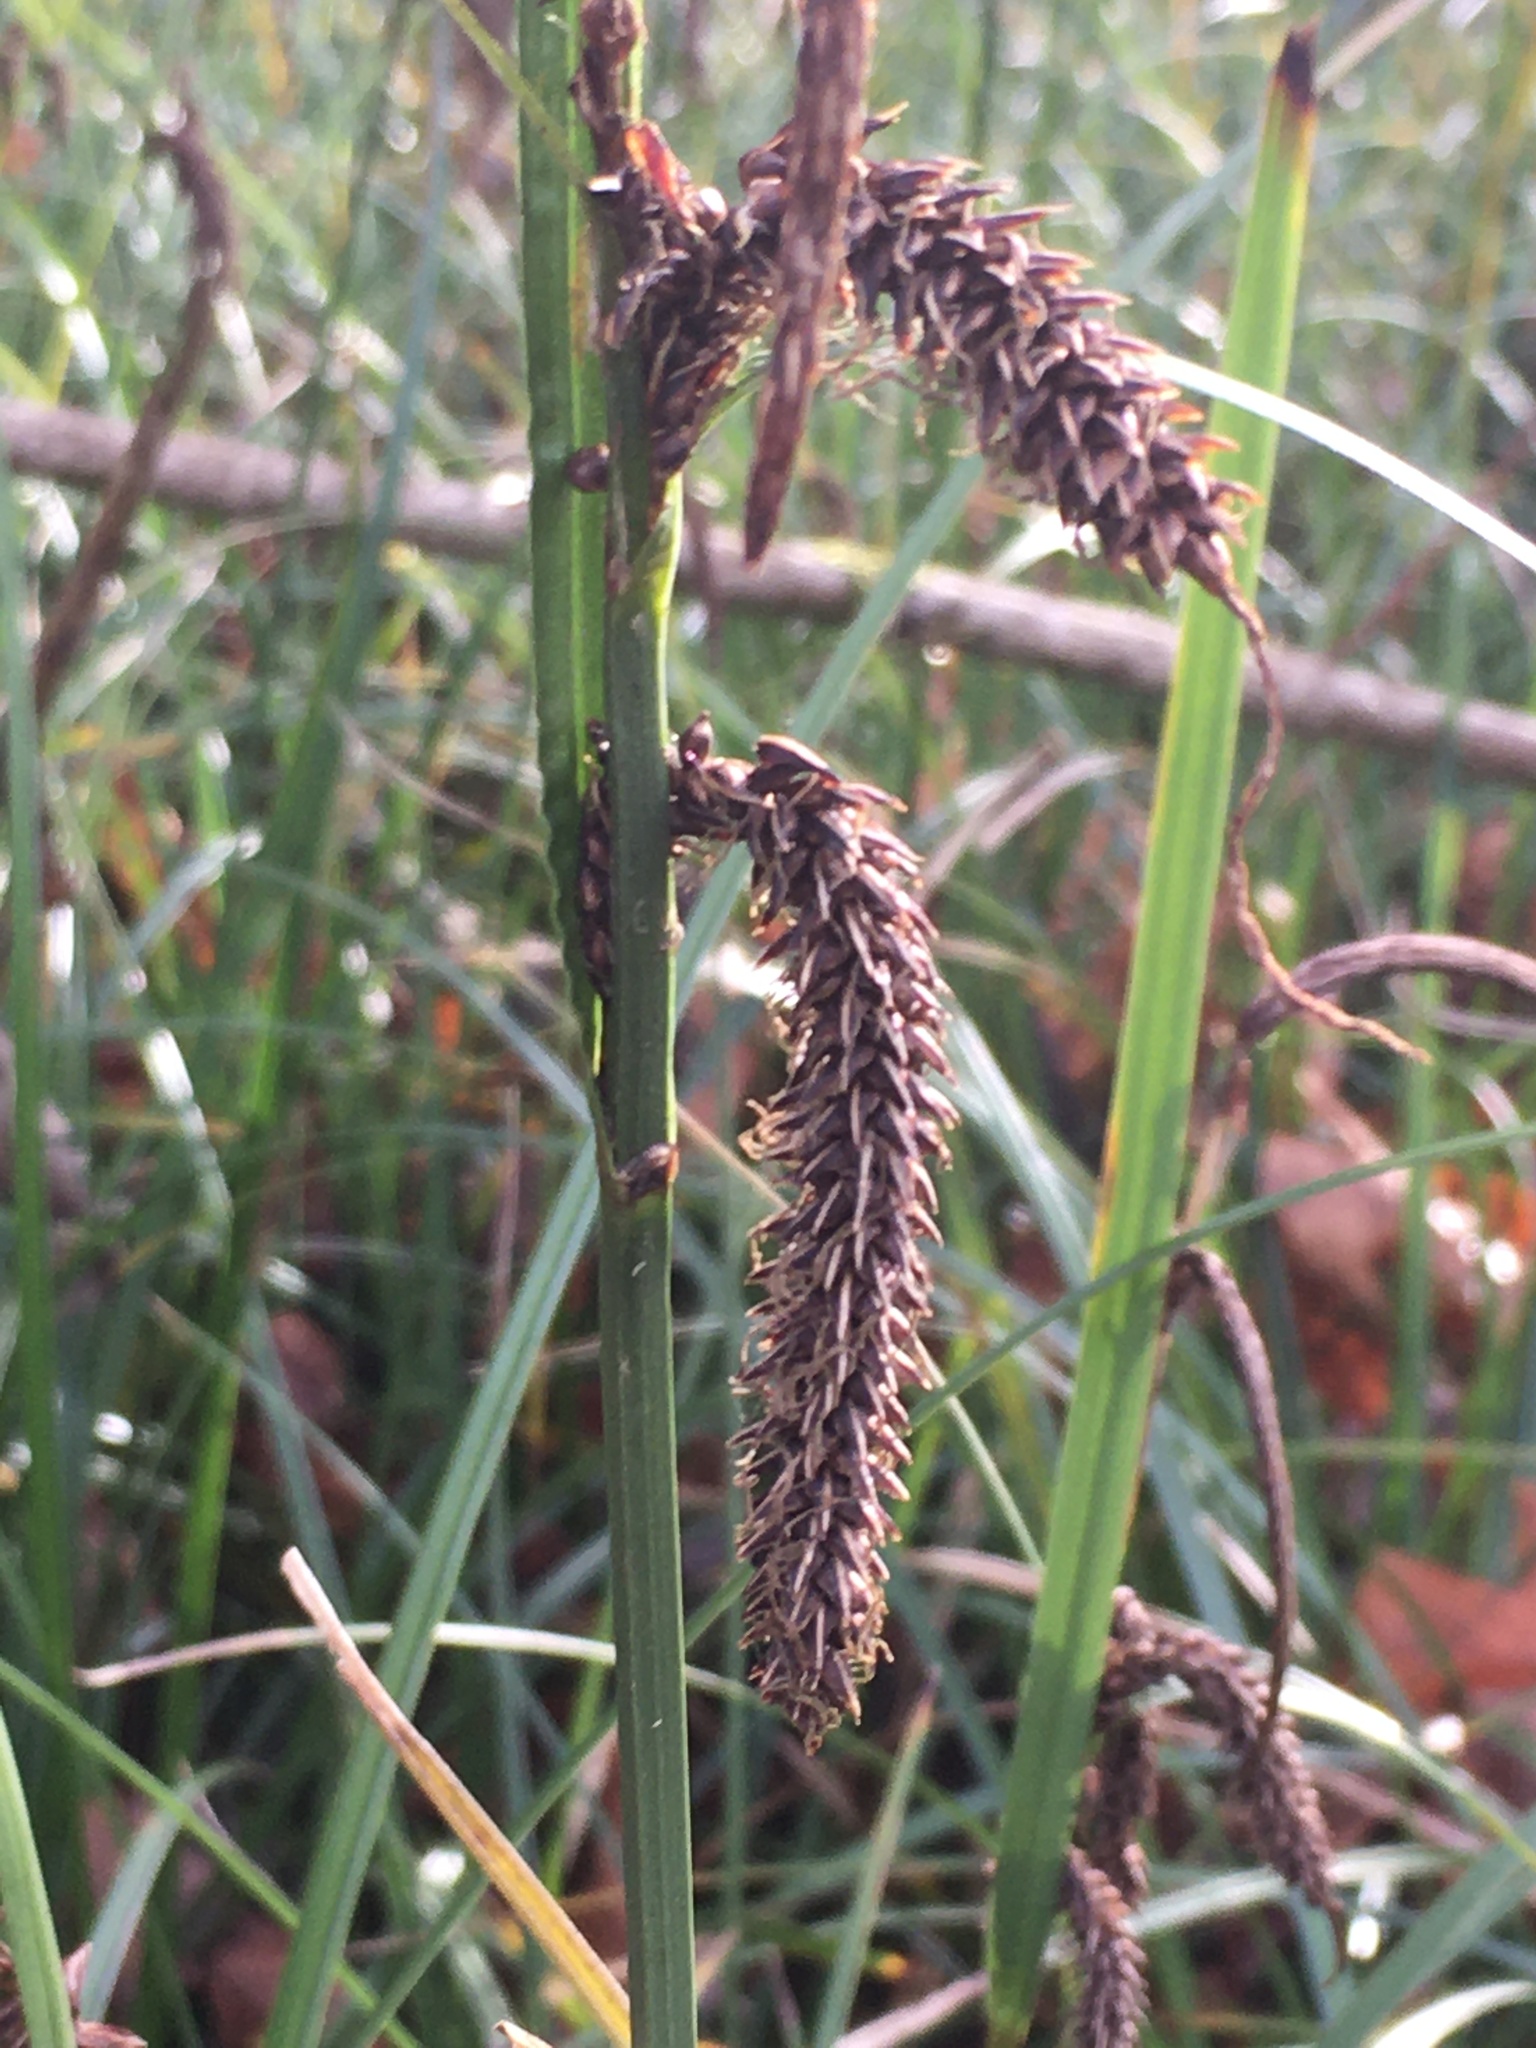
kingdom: Plantae
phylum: Tracheophyta
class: Liliopsida
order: Poales
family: Cyperaceae
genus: Carex
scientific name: Carex obnupta
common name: Slough sedge
